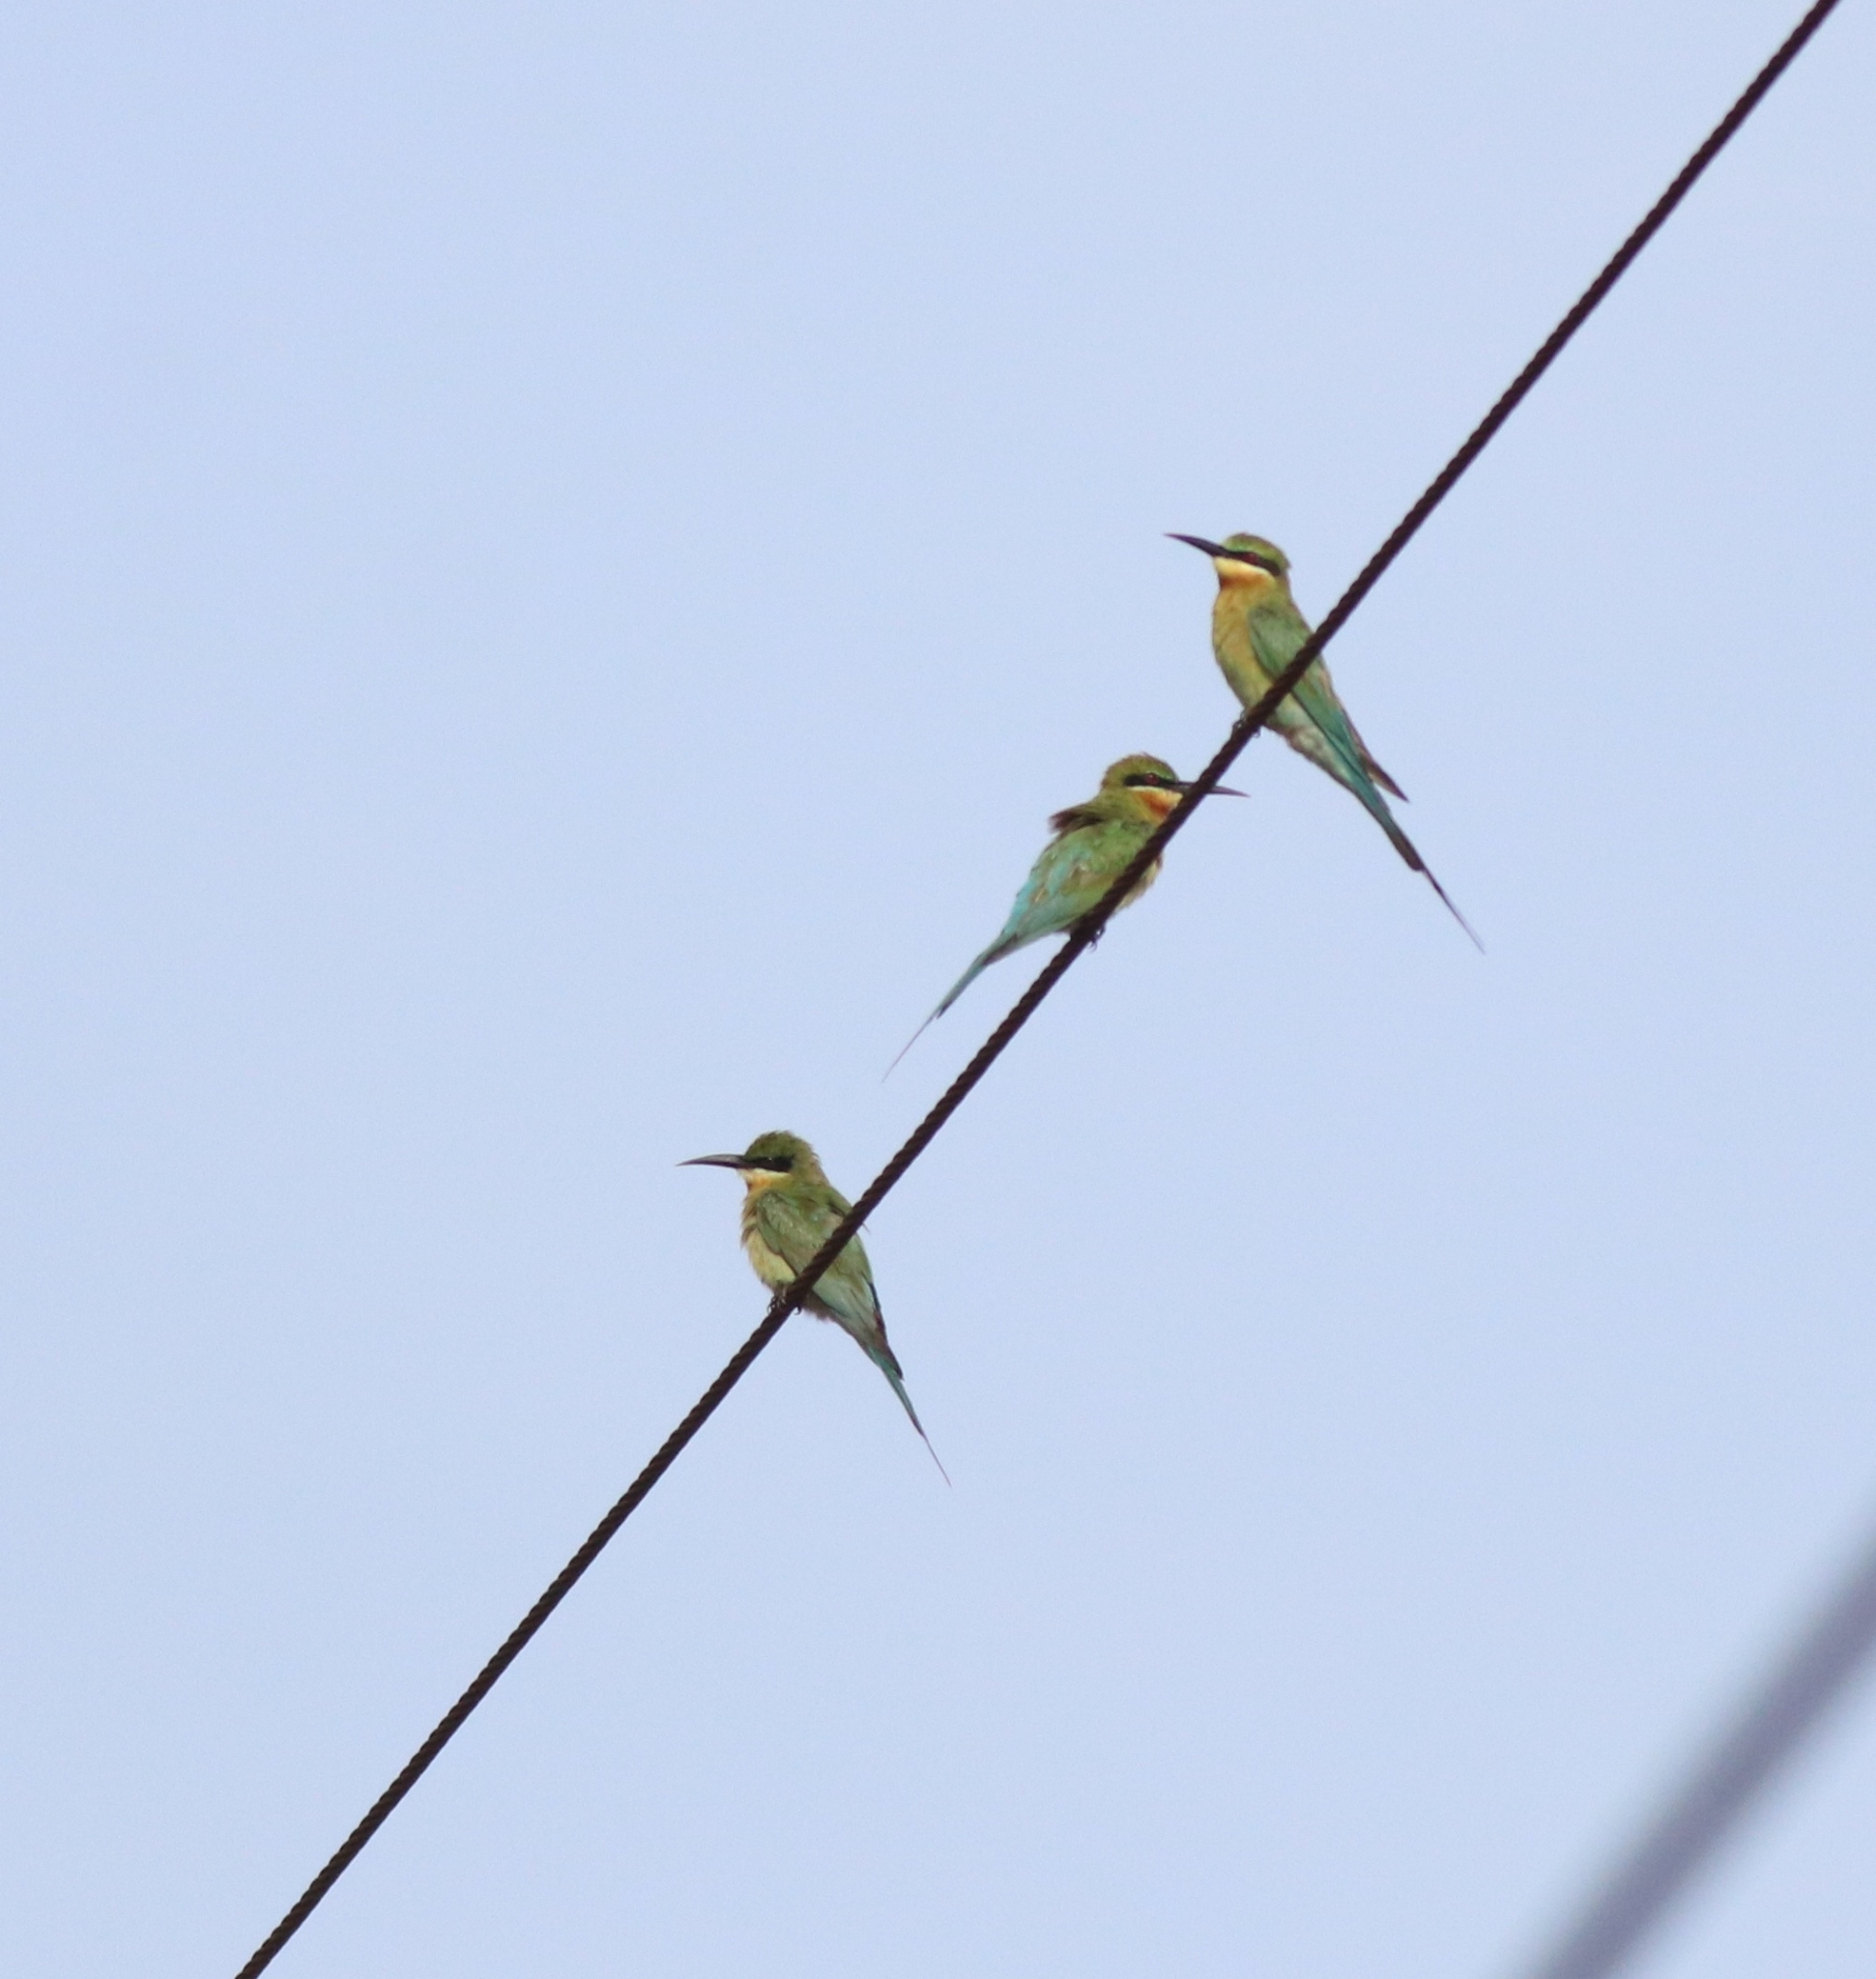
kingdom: Animalia
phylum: Chordata
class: Aves
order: Coraciiformes
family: Meropidae
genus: Merops
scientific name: Merops philippinus
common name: Blue-tailed bee-eater
